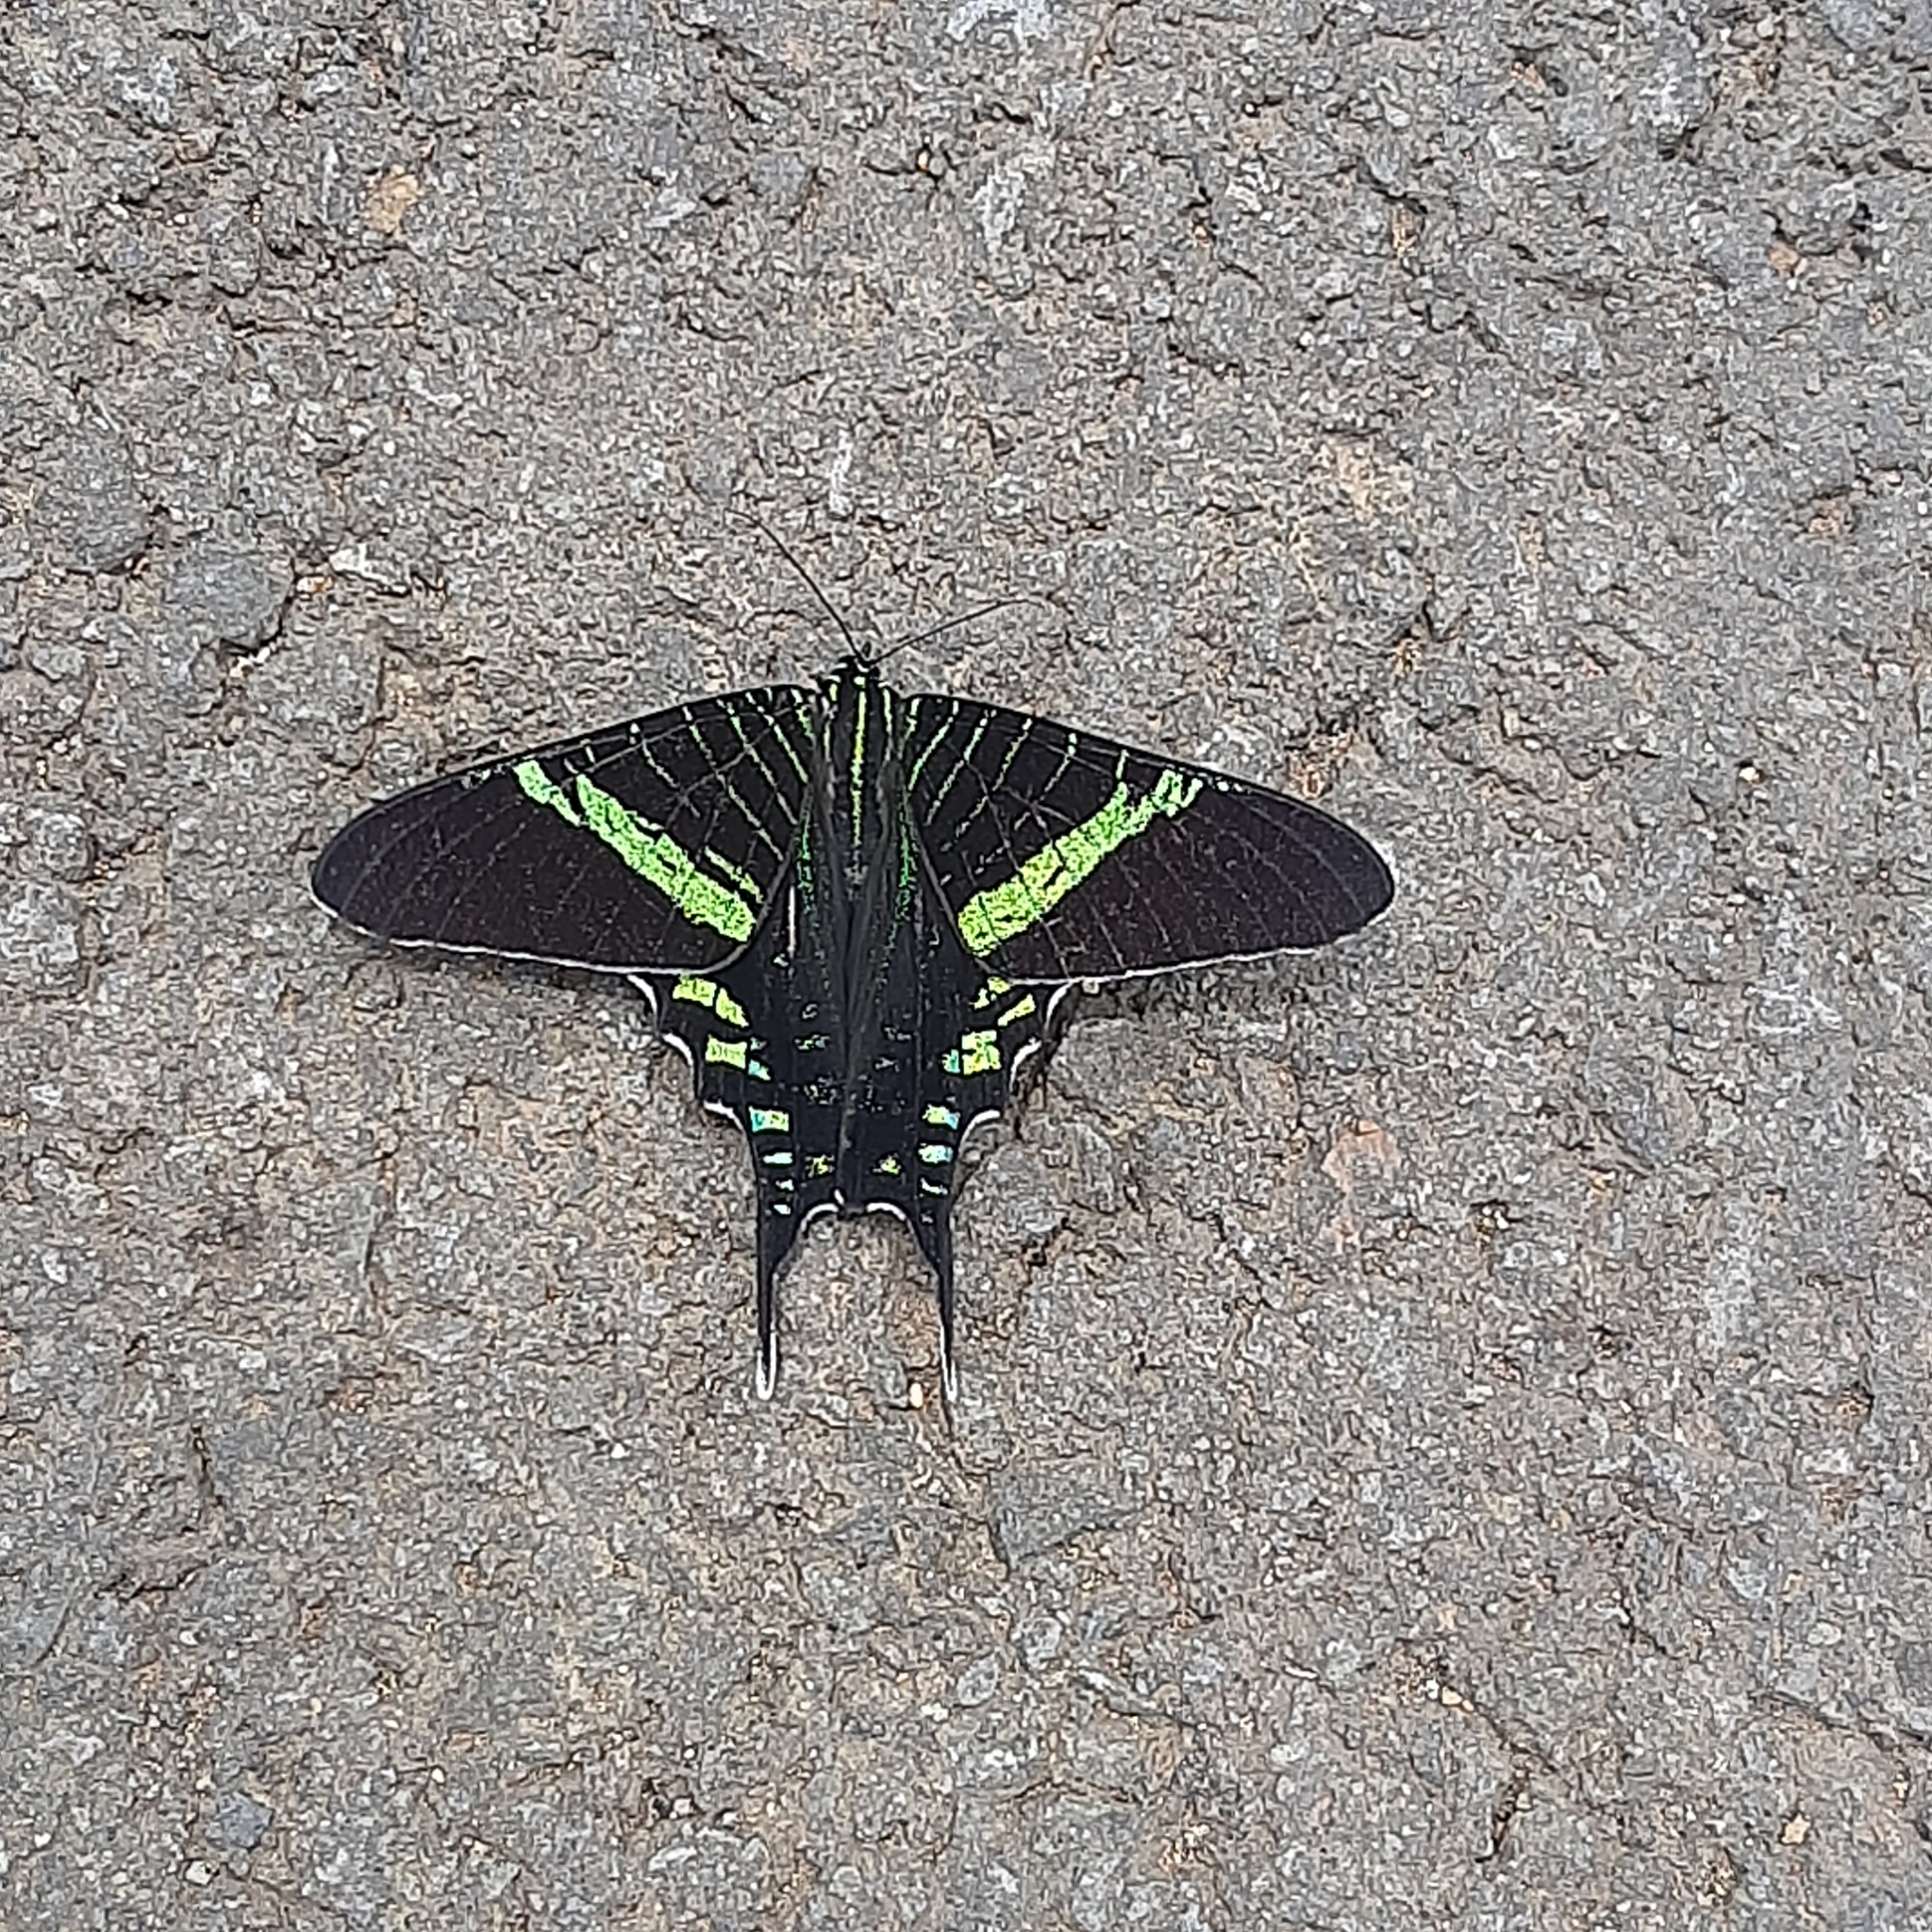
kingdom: Animalia
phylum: Arthropoda
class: Insecta
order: Lepidoptera
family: Uraniidae
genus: Urania
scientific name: Urania fulgens
